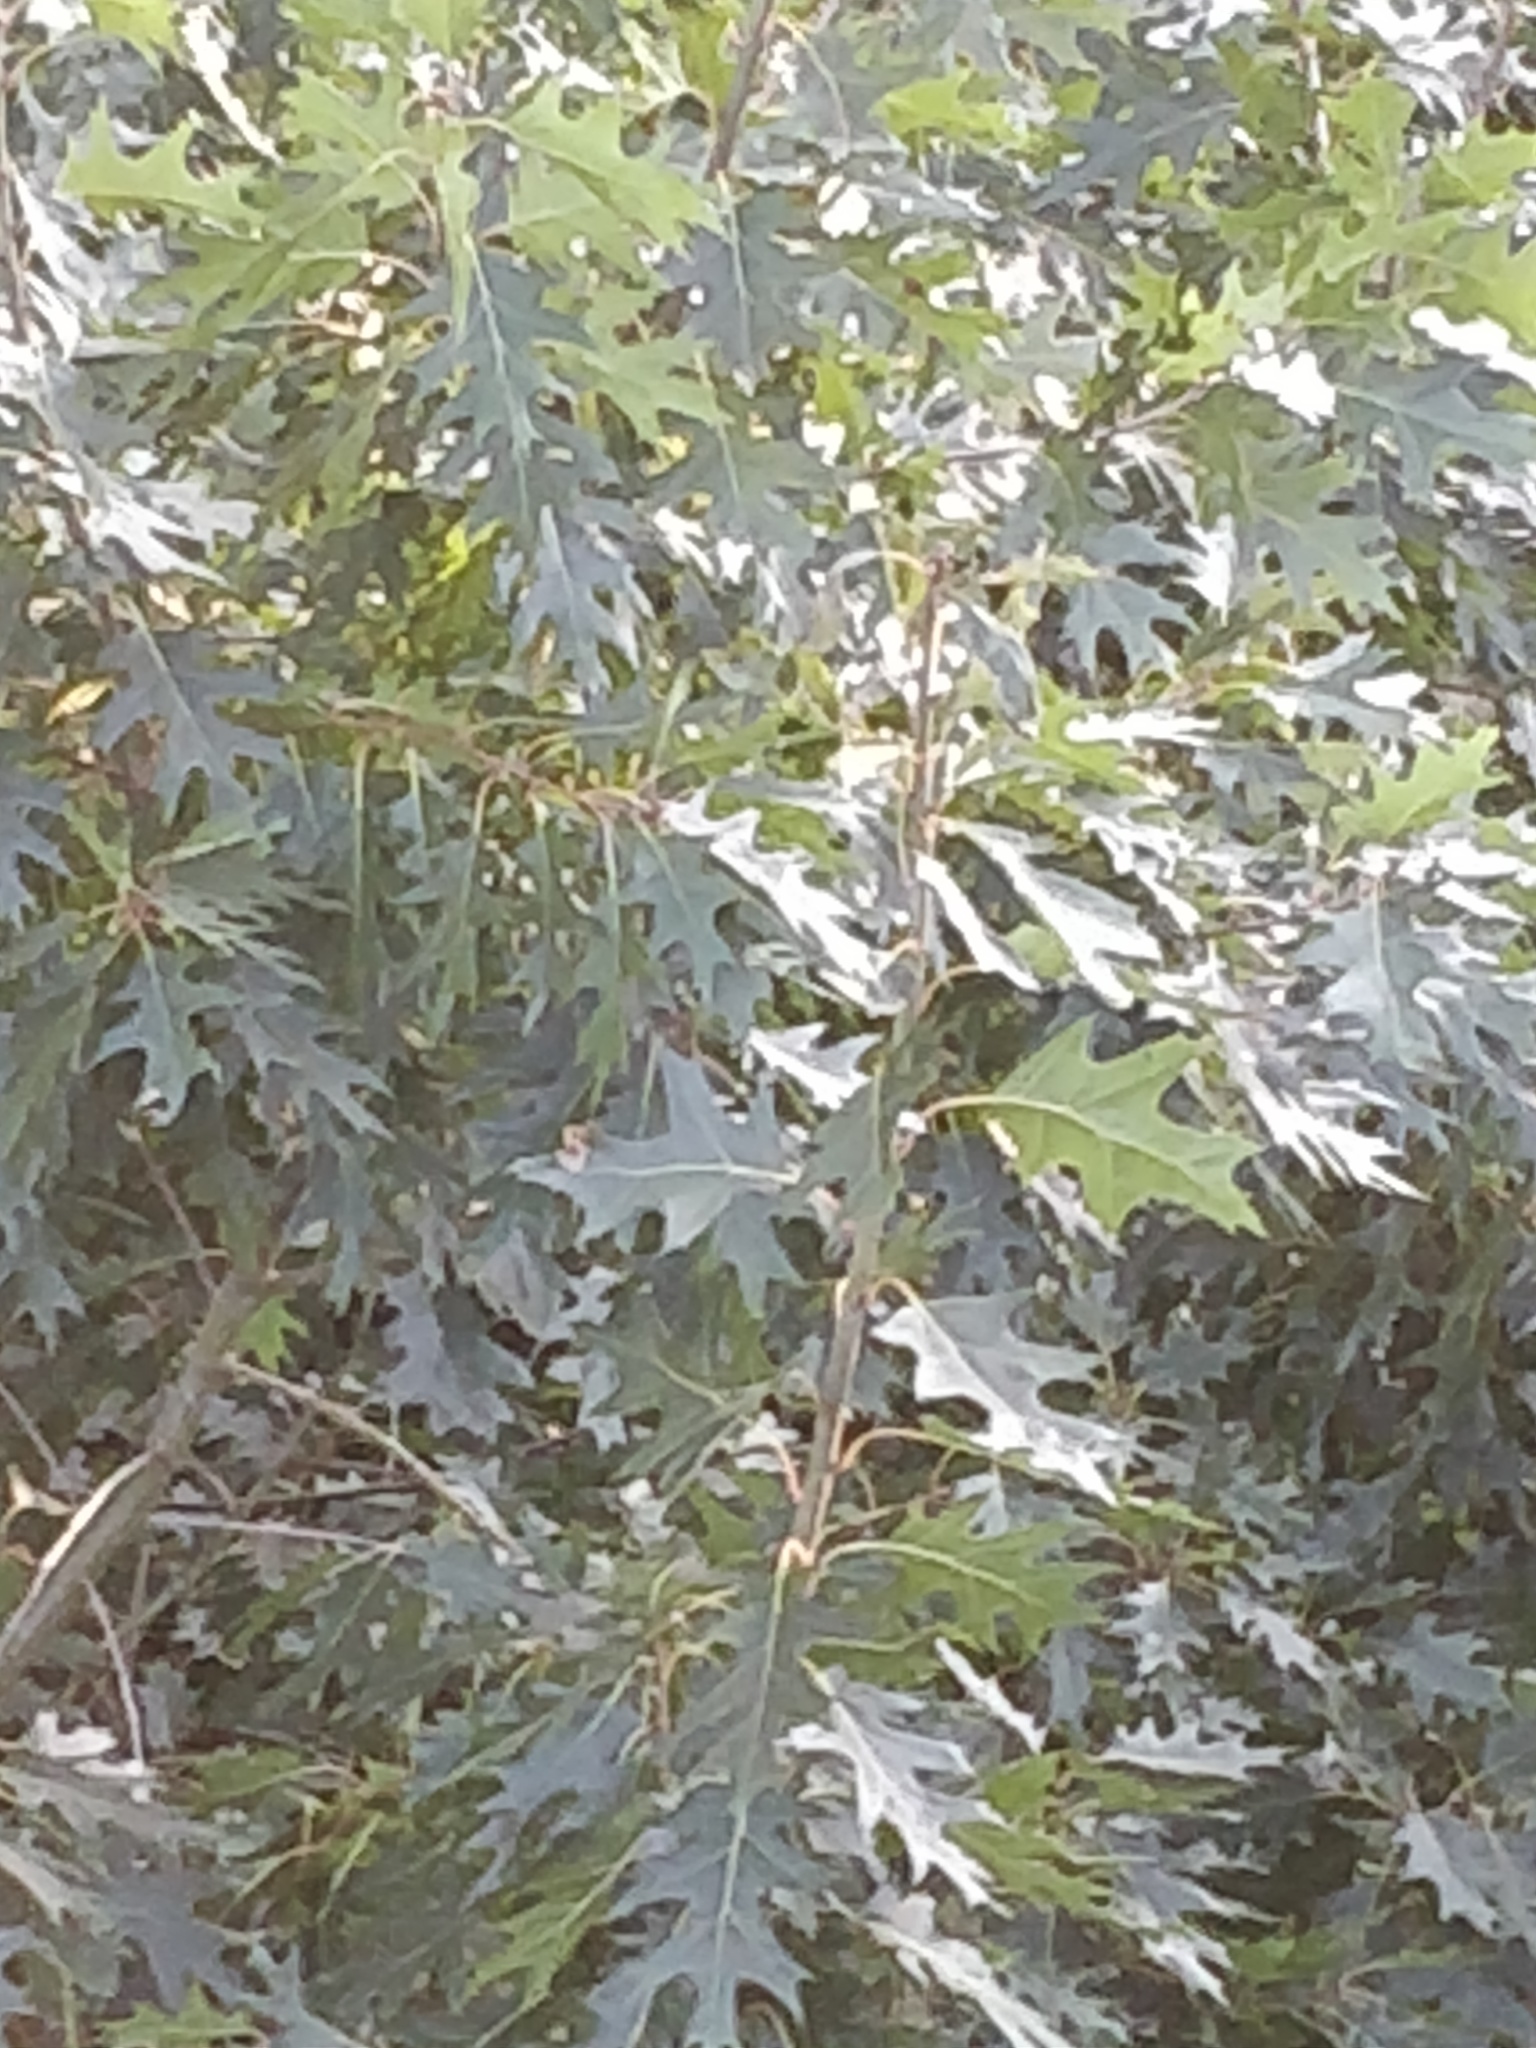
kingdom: Plantae
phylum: Tracheophyta
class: Magnoliopsida
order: Fagales
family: Fagaceae
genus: Quercus
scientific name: Quercus rubra
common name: Red oak
